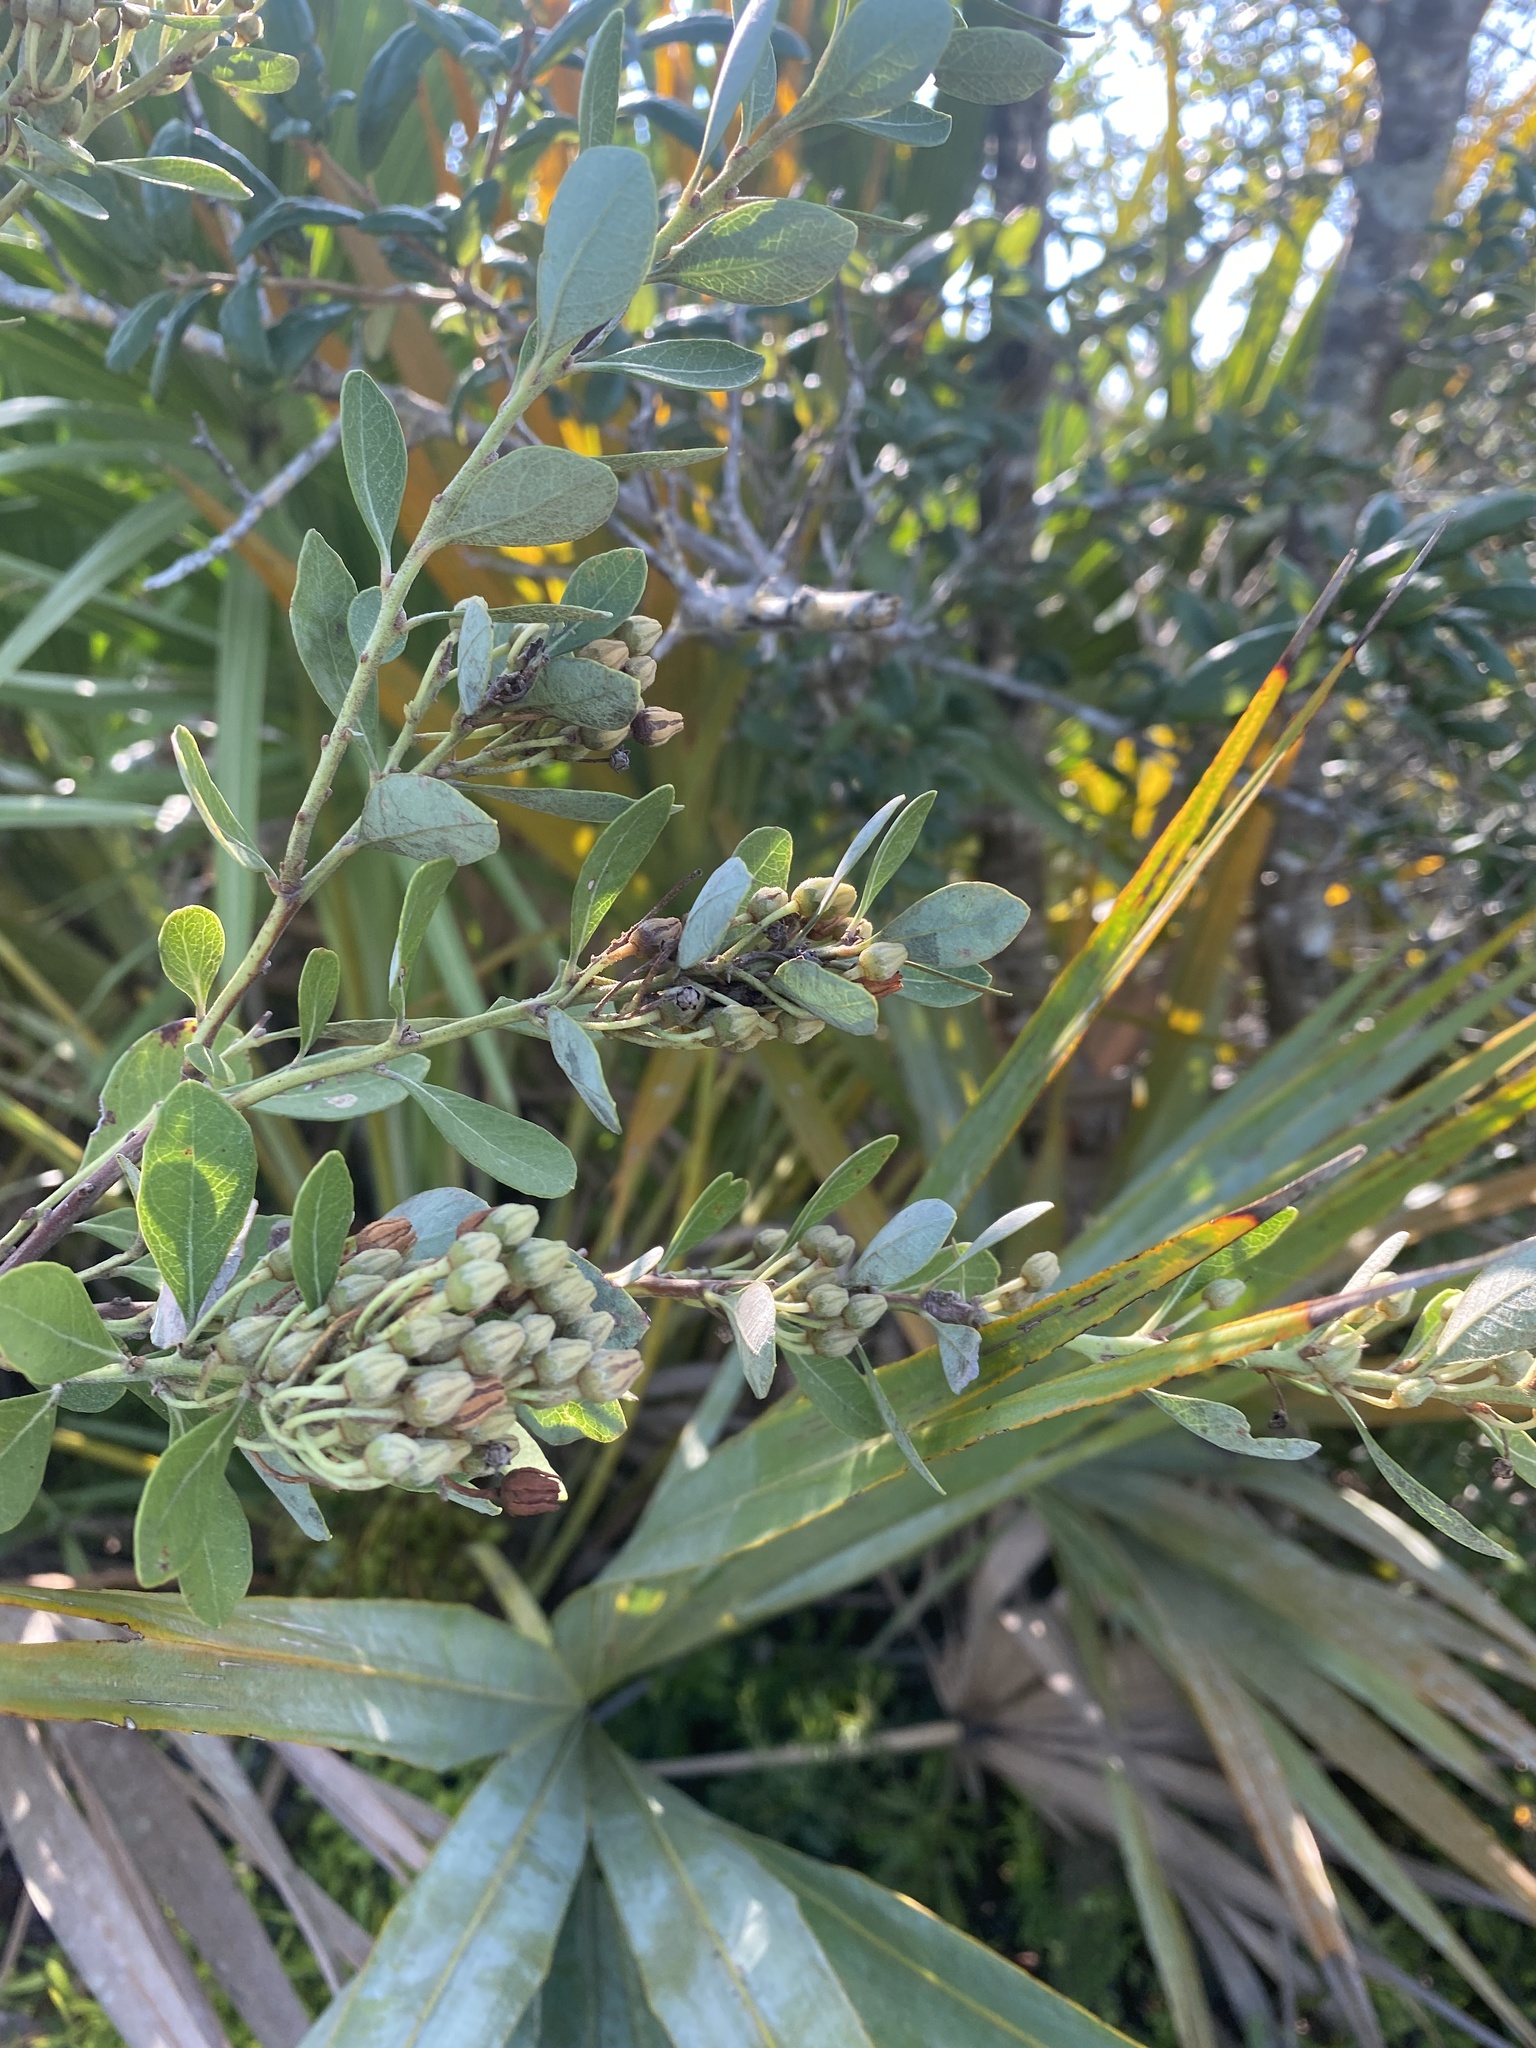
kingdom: Plantae
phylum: Tracheophyta
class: Magnoliopsida
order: Ericales
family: Ericaceae
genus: Lyonia
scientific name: Lyonia fruticosa
